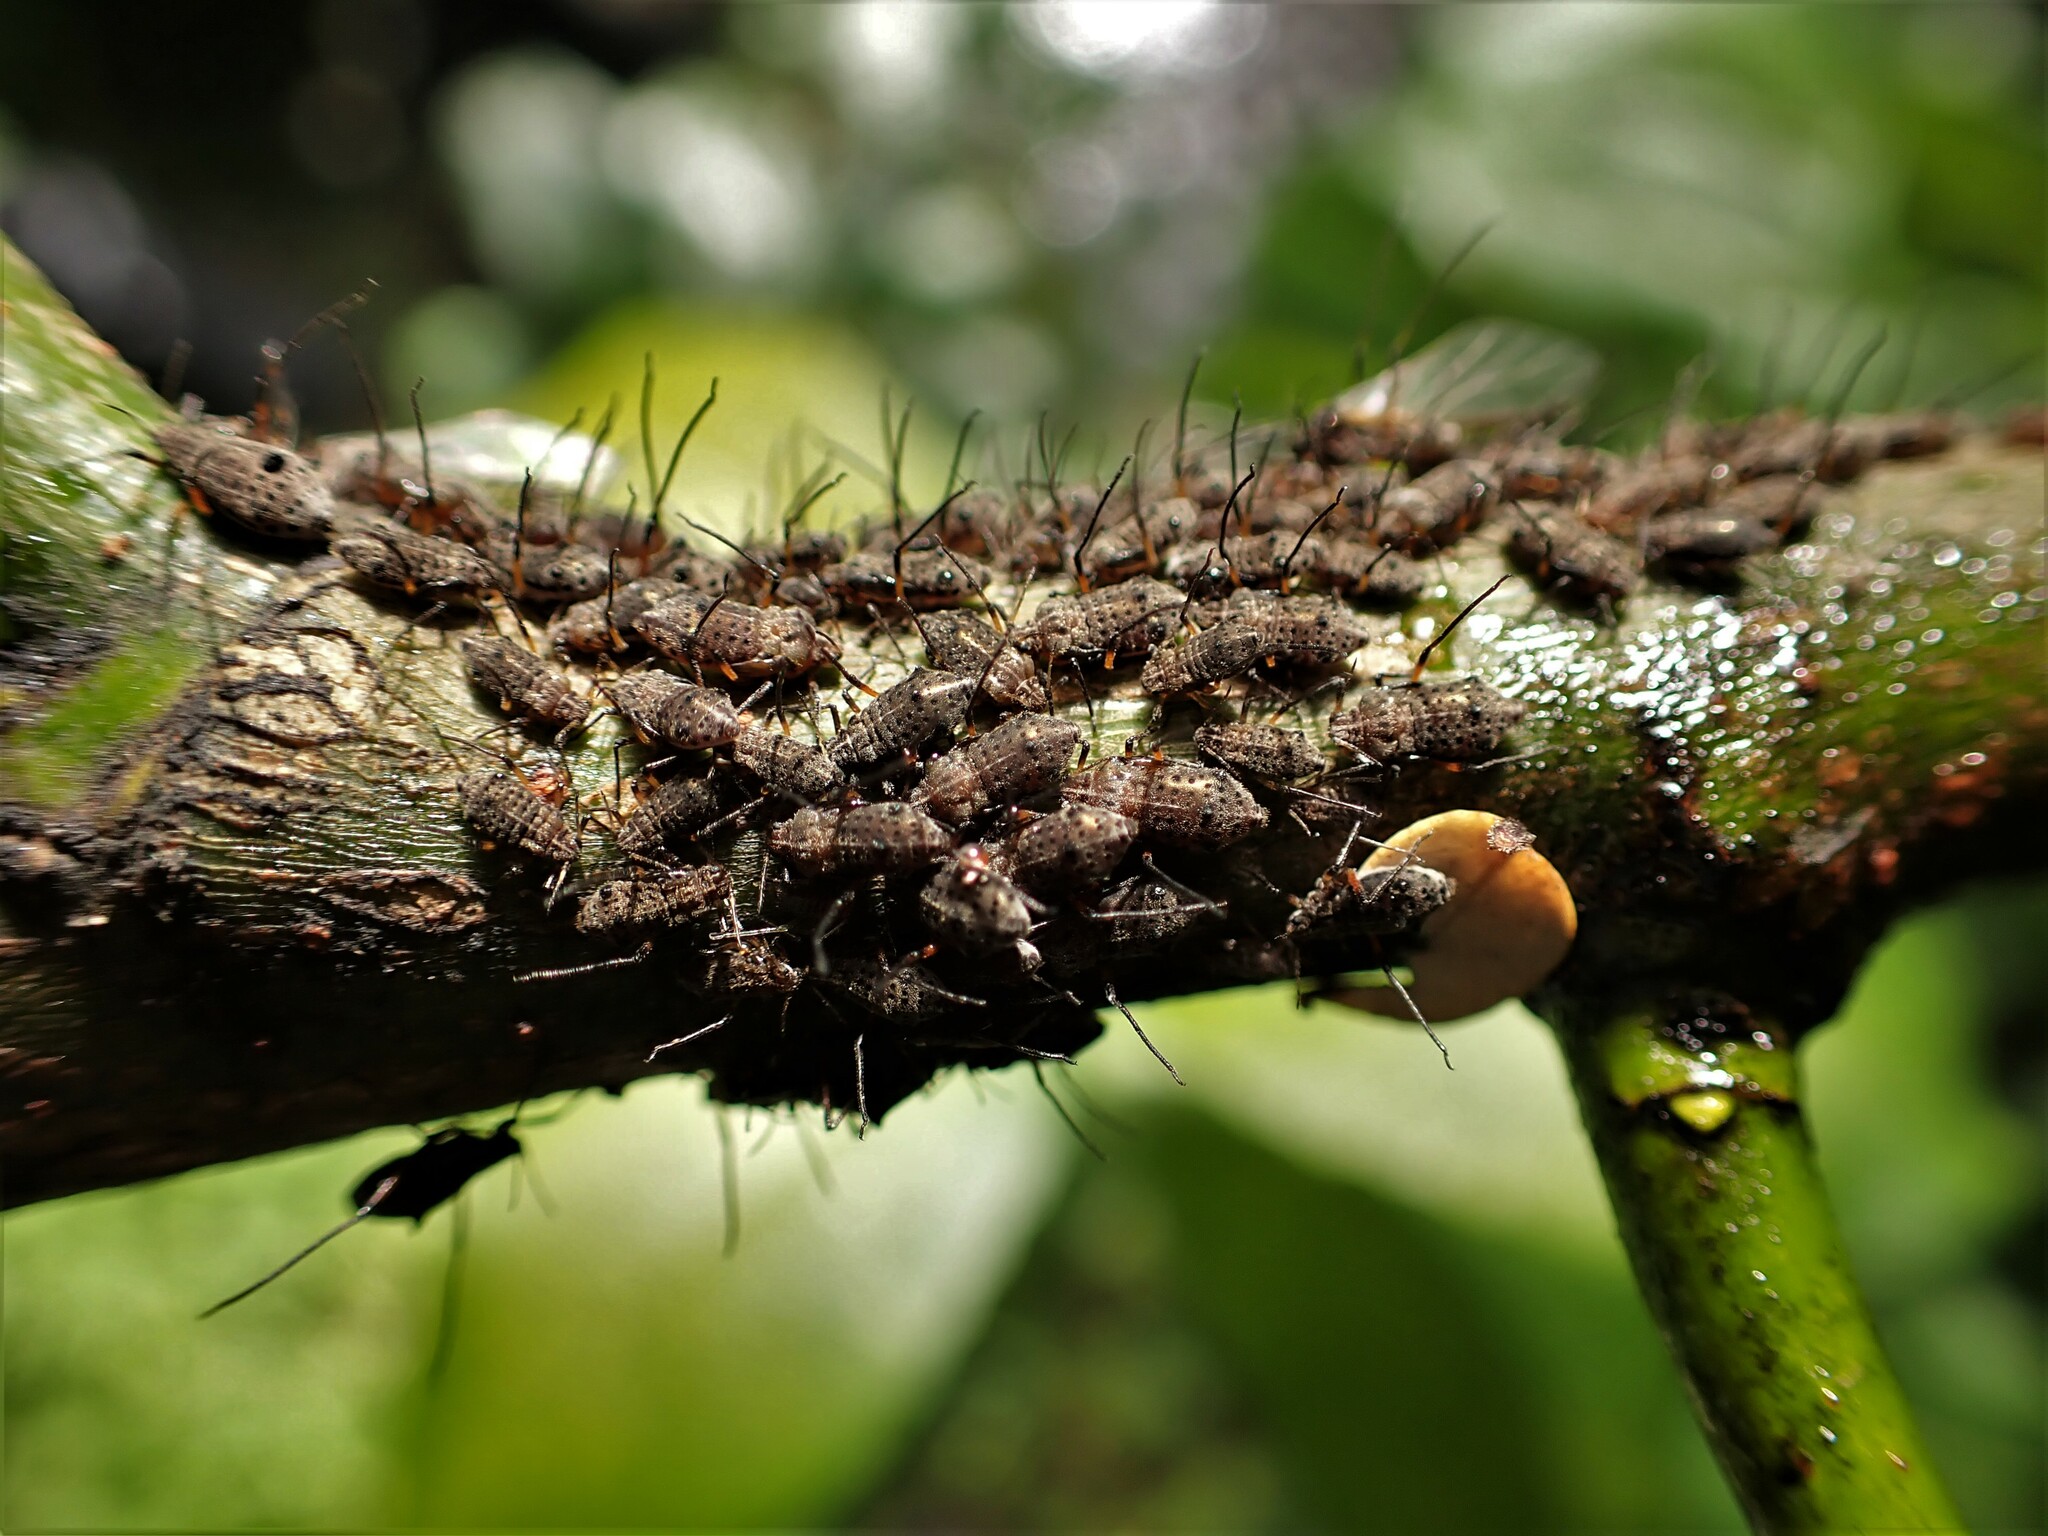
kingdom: Animalia
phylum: Arthropoda
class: Insecta
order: Hemiptera
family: Aphididae
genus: Tuberolachnus
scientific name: Tuberolachnus salignus
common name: Giant willow aphid
